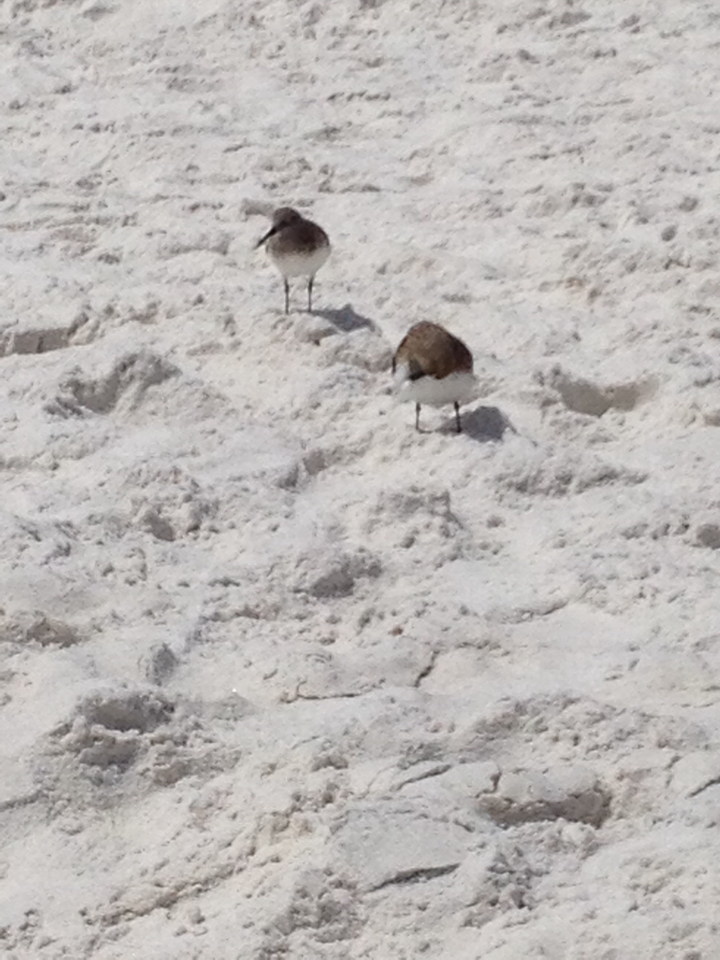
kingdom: Animalia
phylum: Chordata
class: Aves
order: Charadriiformes
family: Scolopacidae
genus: Calidris
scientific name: Calidris alpina
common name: Dunlin
